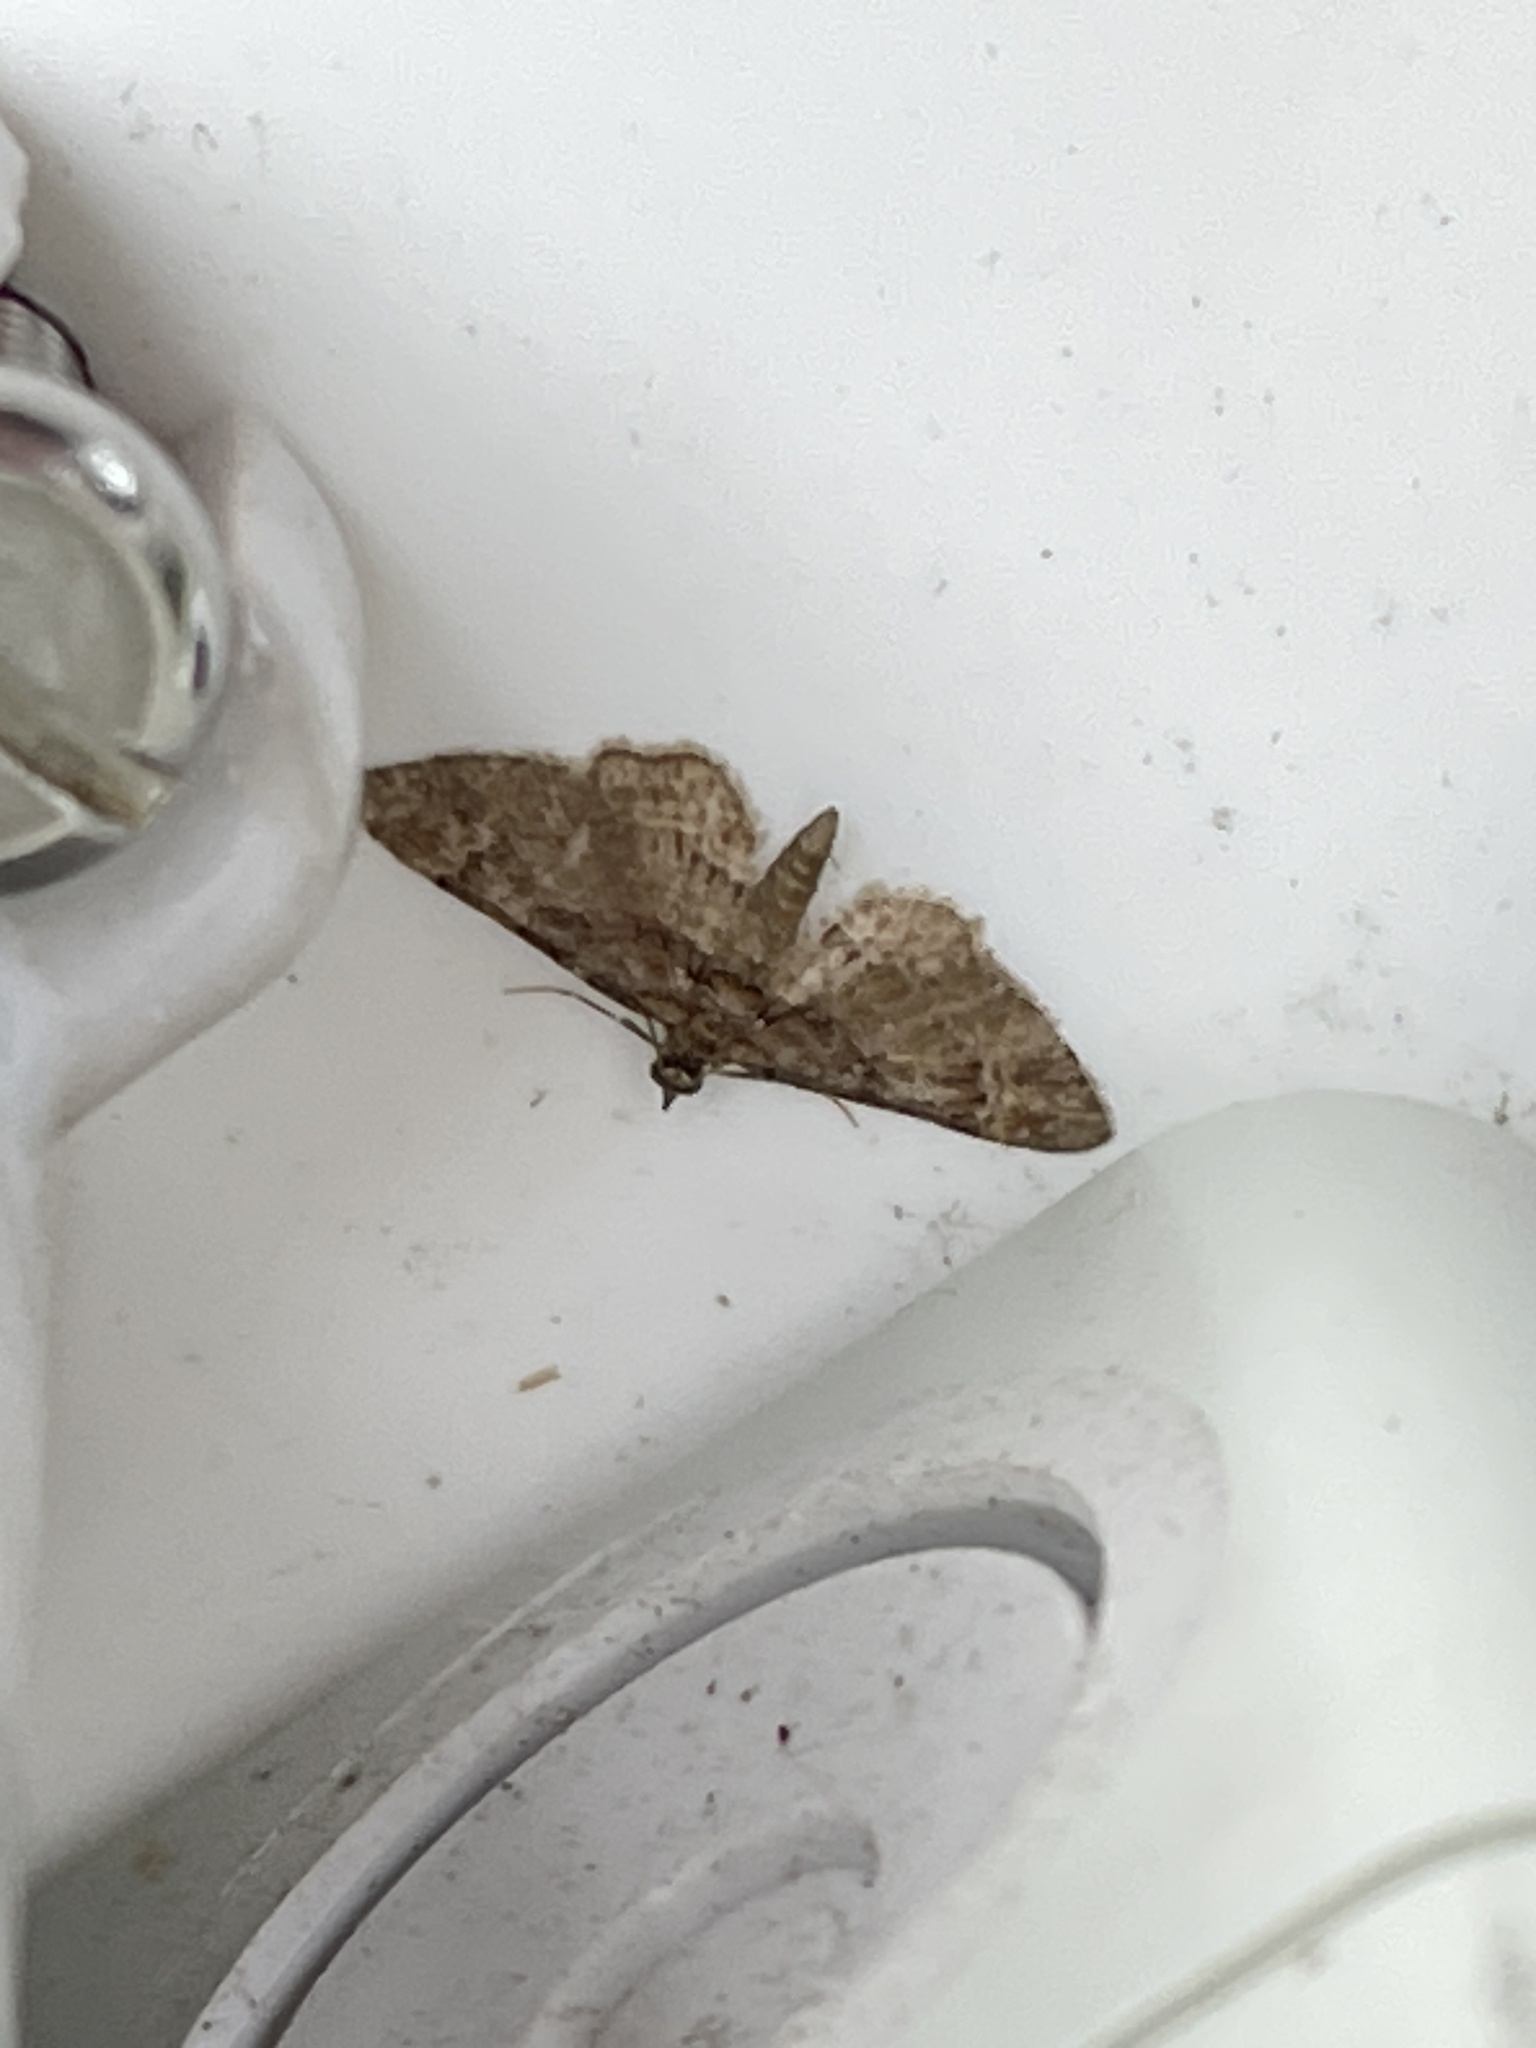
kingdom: Animalia
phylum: Arthropoda
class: Insecta
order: Lepidoptera
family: Geometridae
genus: Gymnoscelis
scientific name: Gymnoscelis rufifasciata
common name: Double-striped pug
